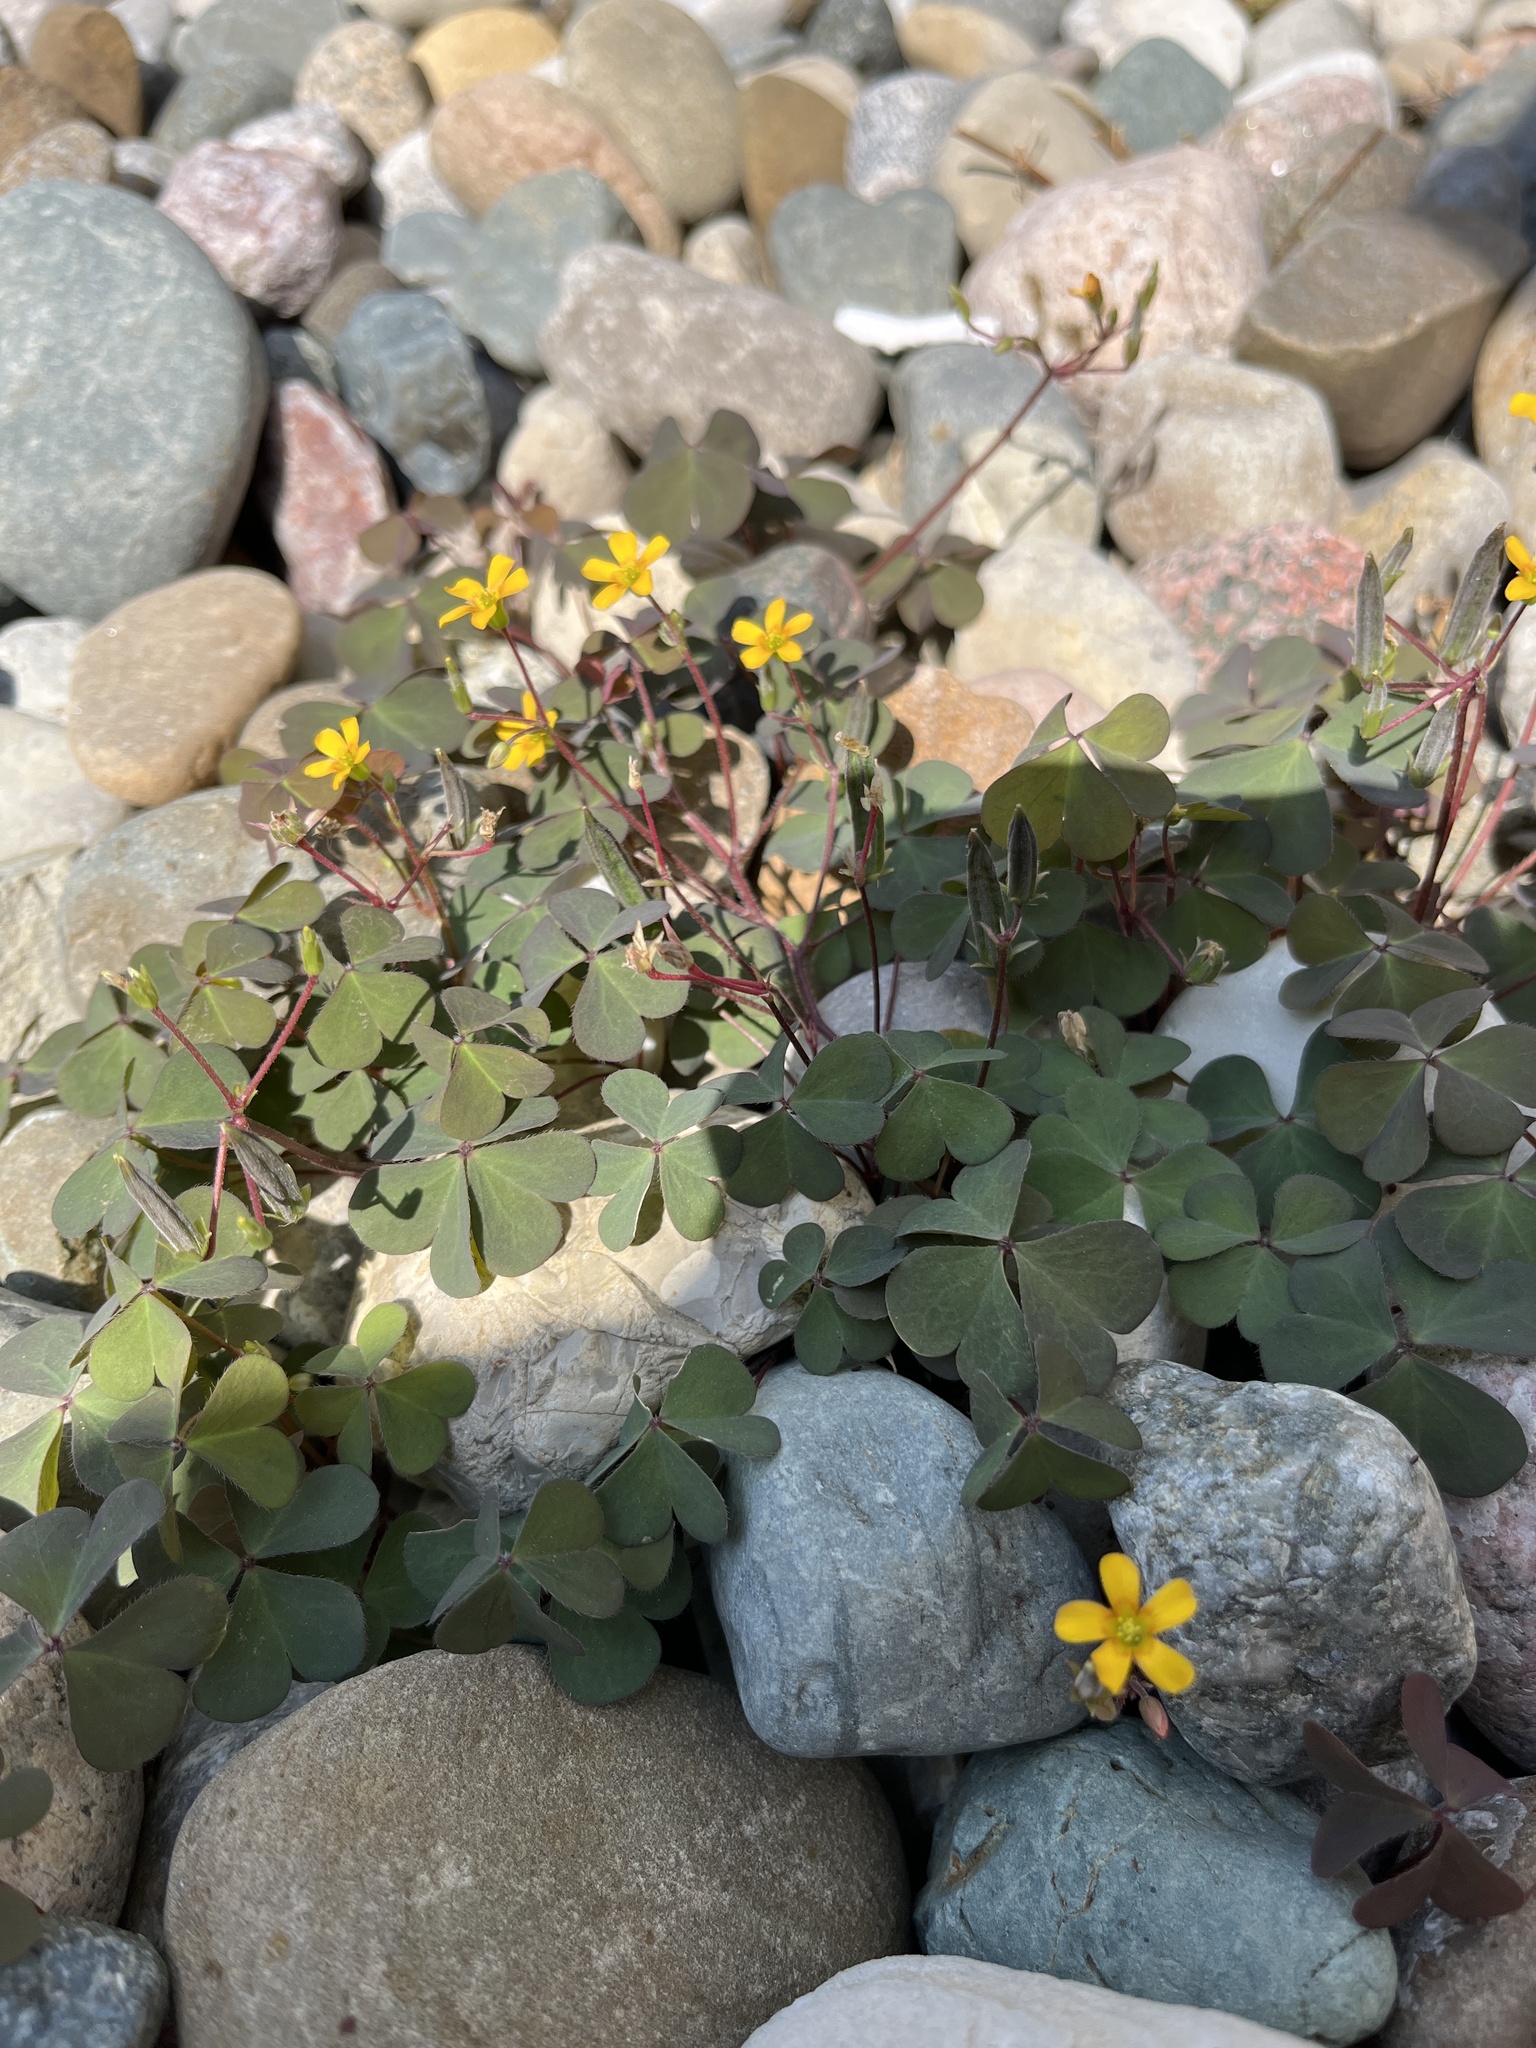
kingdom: Plantae
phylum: Tracheophyta
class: Magnoliopsida
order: Oxalidales
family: Oxalidaceae
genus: Oxalis
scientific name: Oxalis corniculata
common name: Procumbent yellow-sorrel
